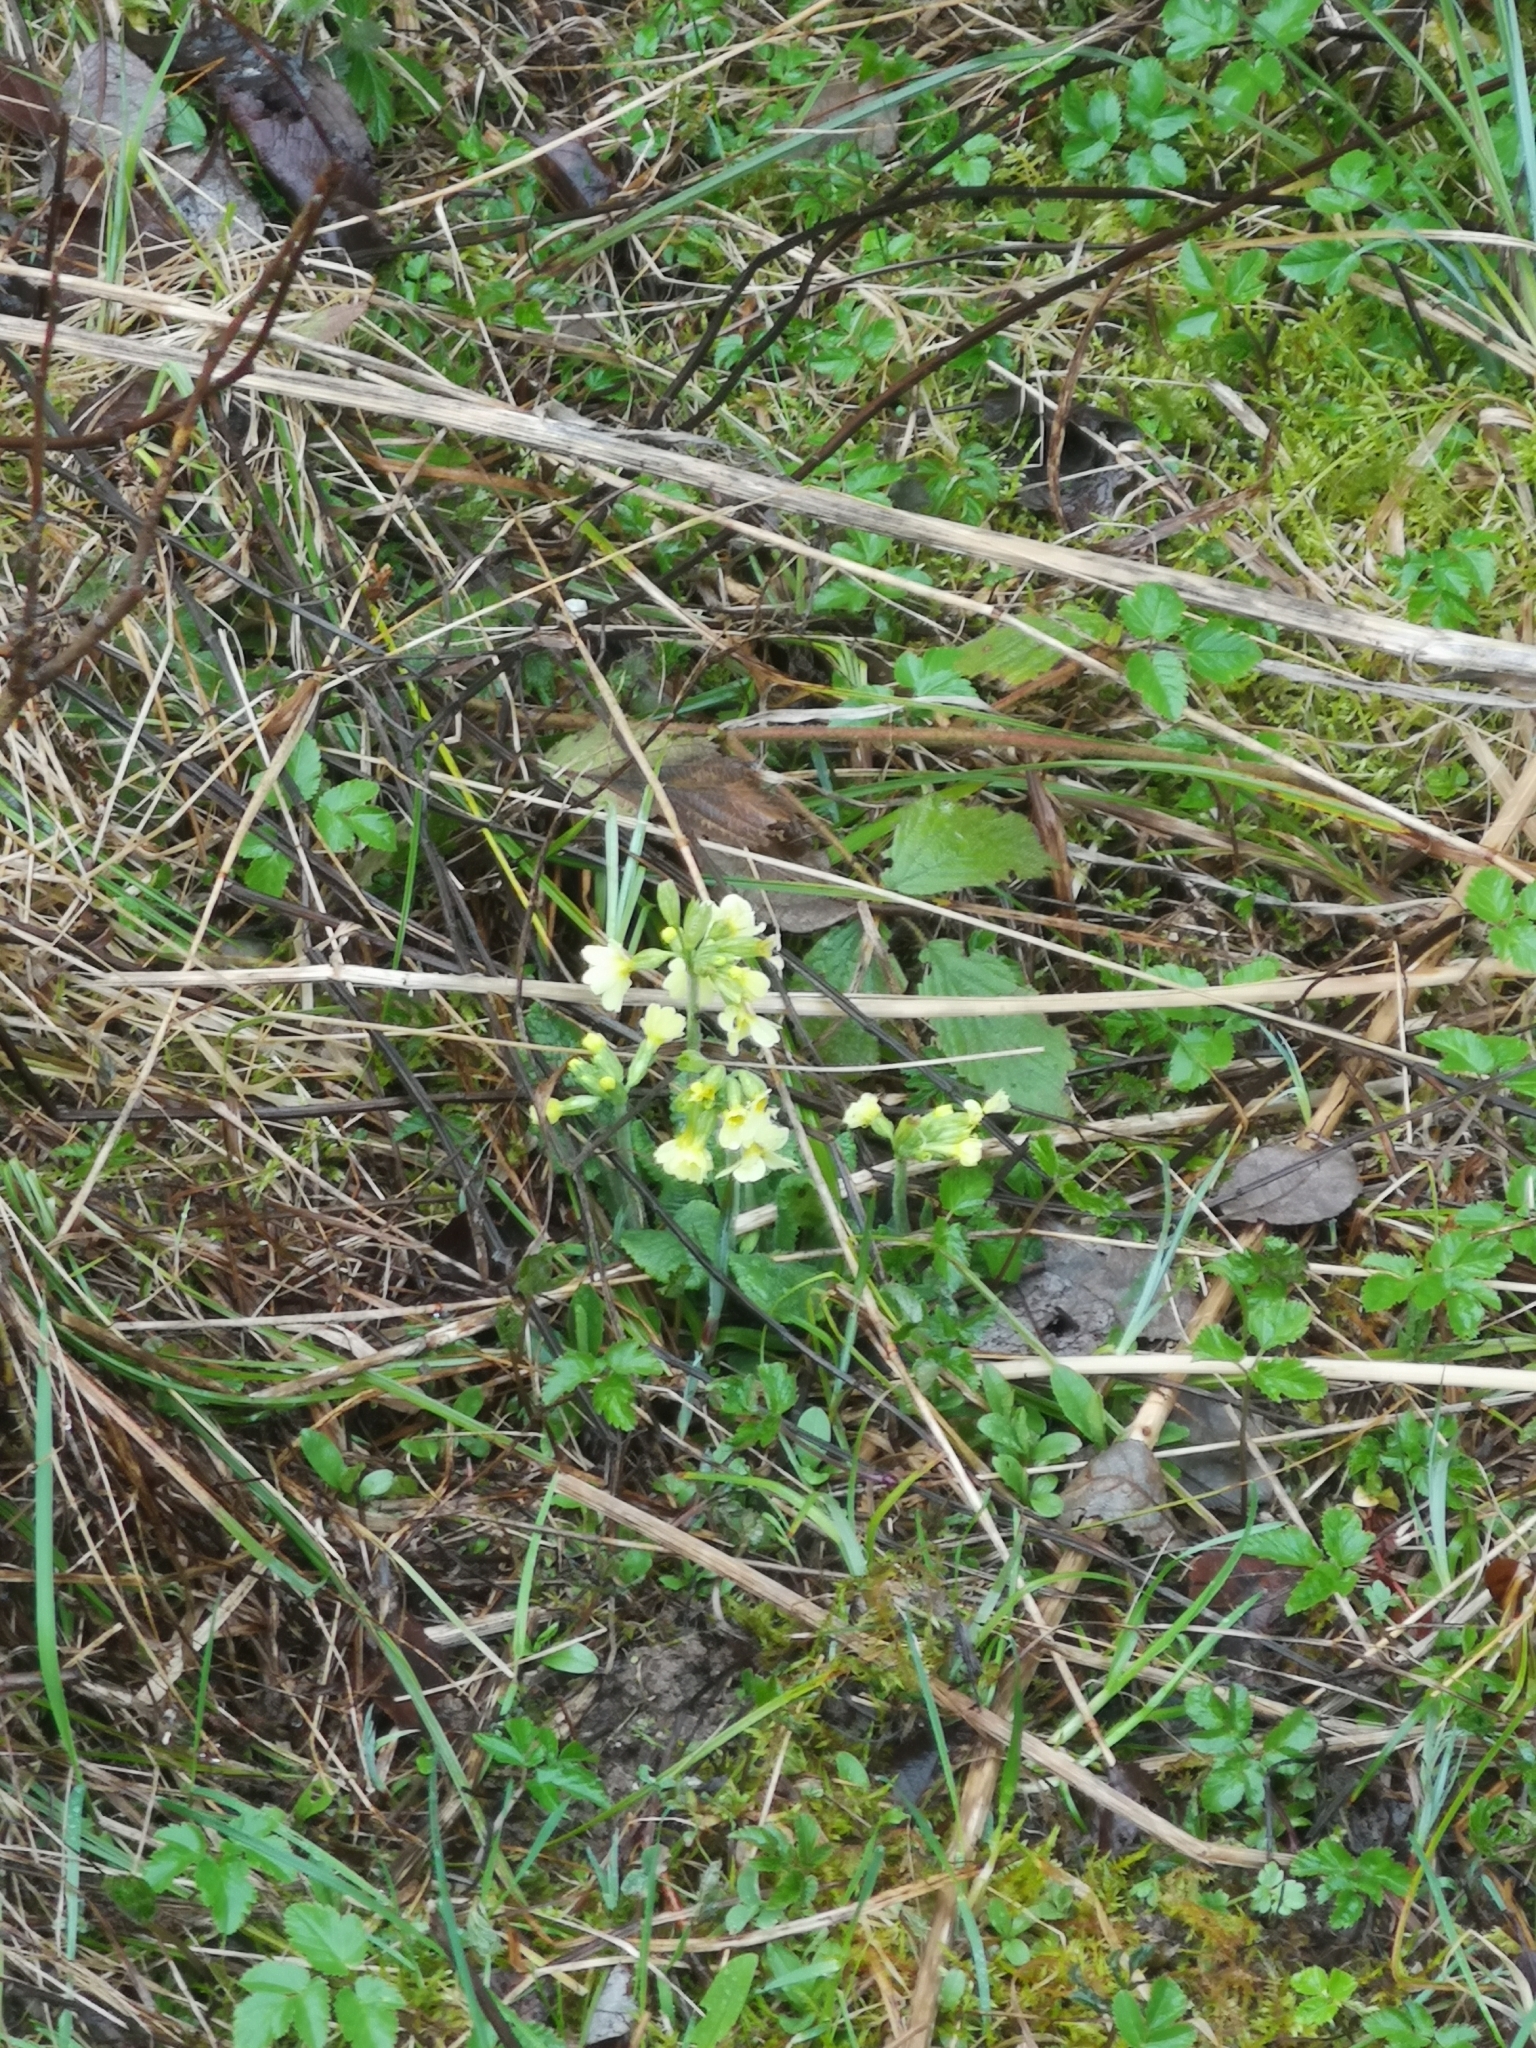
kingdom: Plantae
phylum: Tracheophyta
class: Magnoliopsida
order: Ericales
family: Primulaceae
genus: Primula
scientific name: Primula elatior
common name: Oxlip
